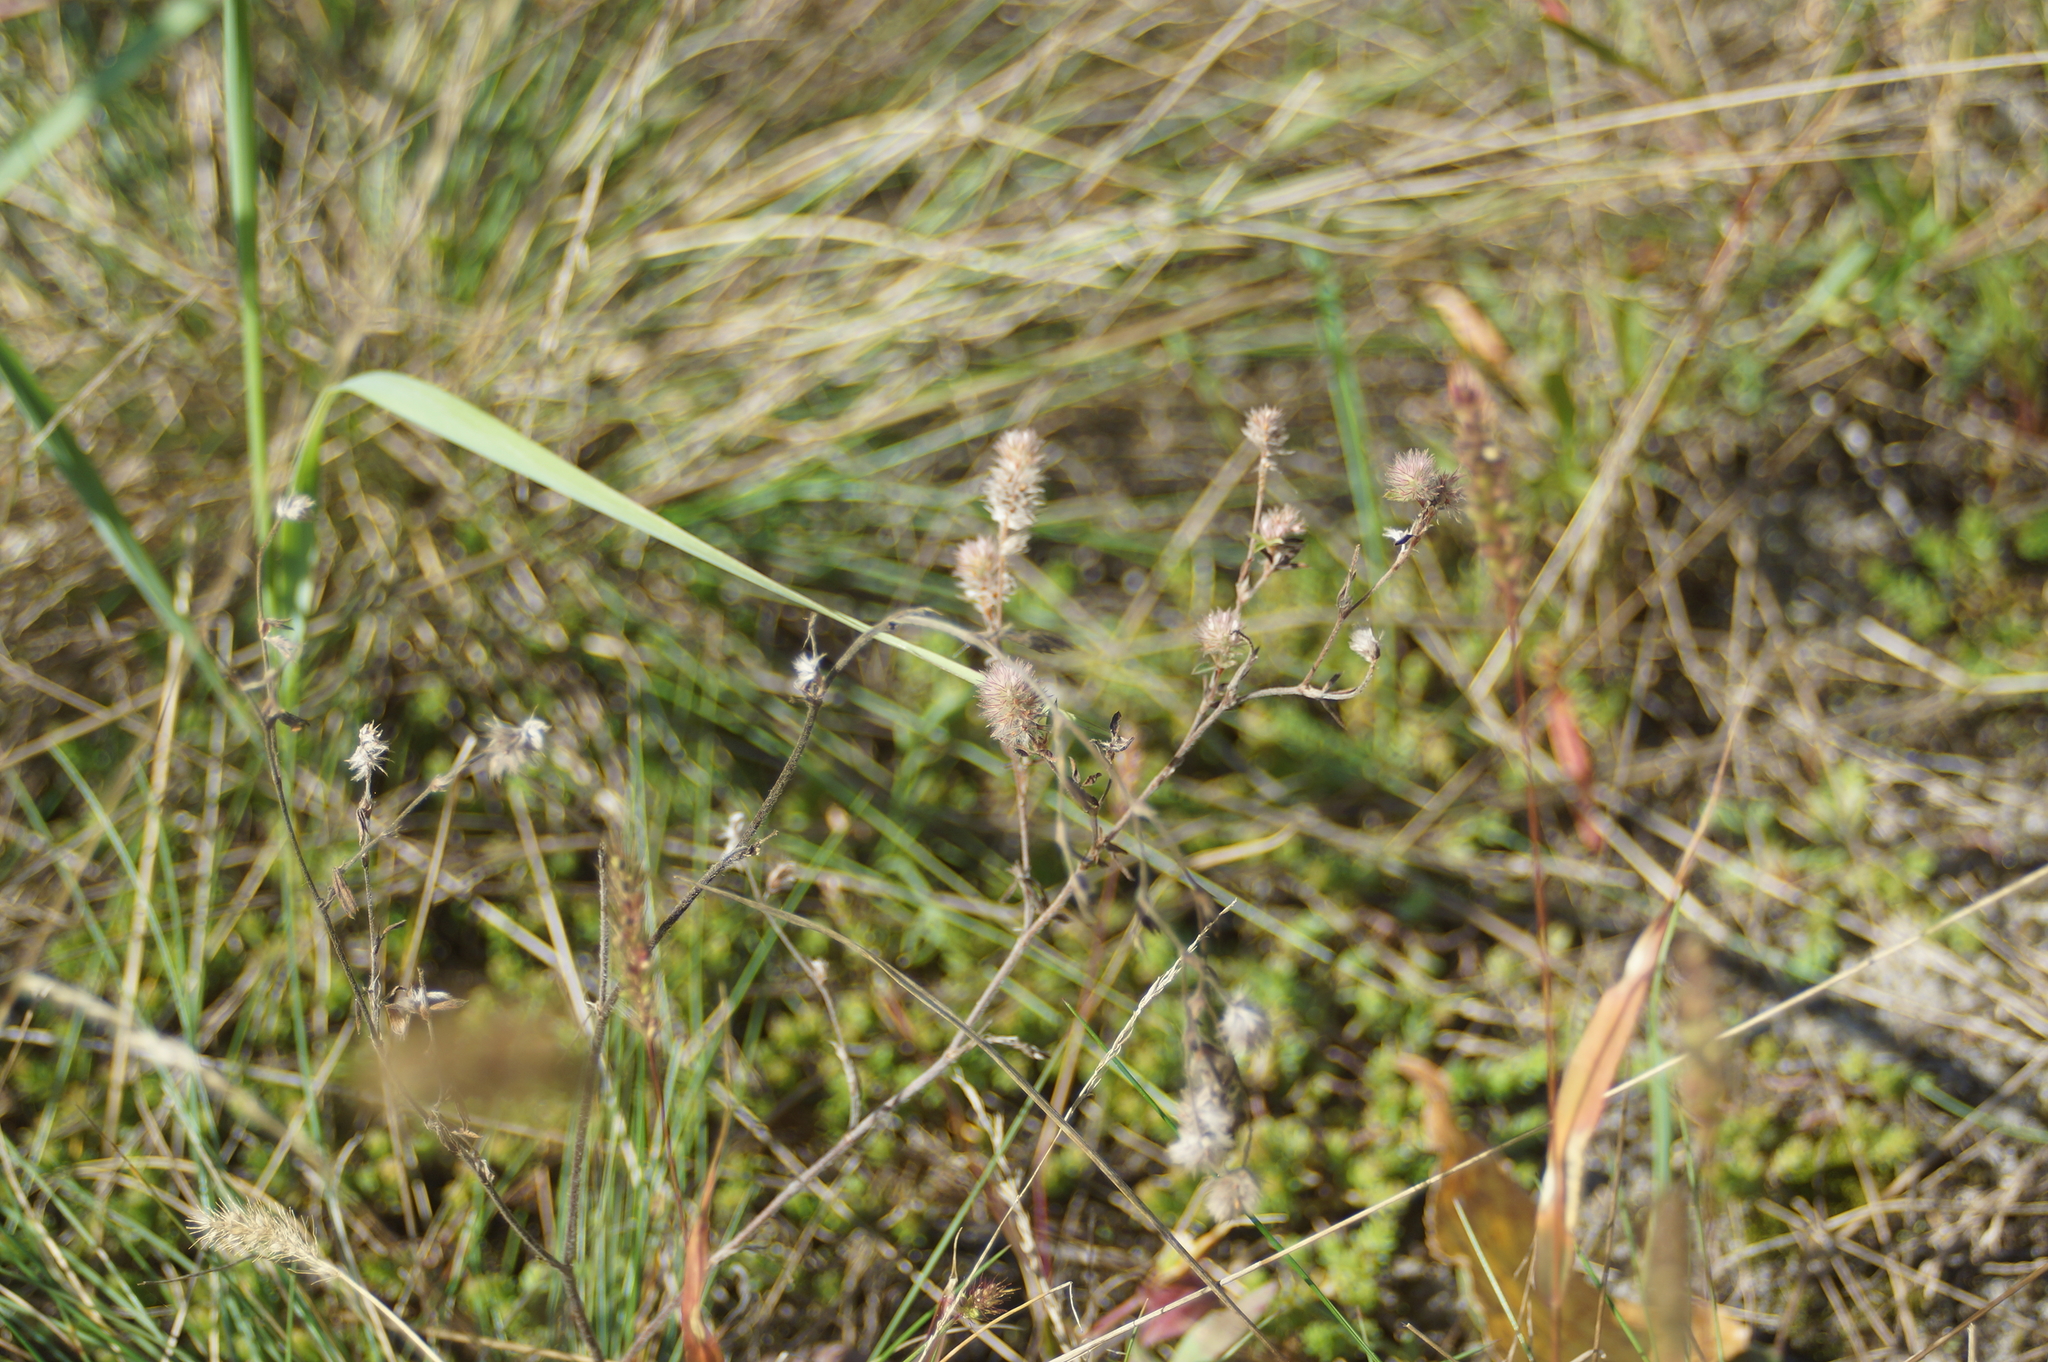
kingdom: Plantae
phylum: Tracheophyta
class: Magnoliopsida
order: Fabales
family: Fabaceae
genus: Trifolium
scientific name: Trifolium arvense
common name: Hare's-foot clover
